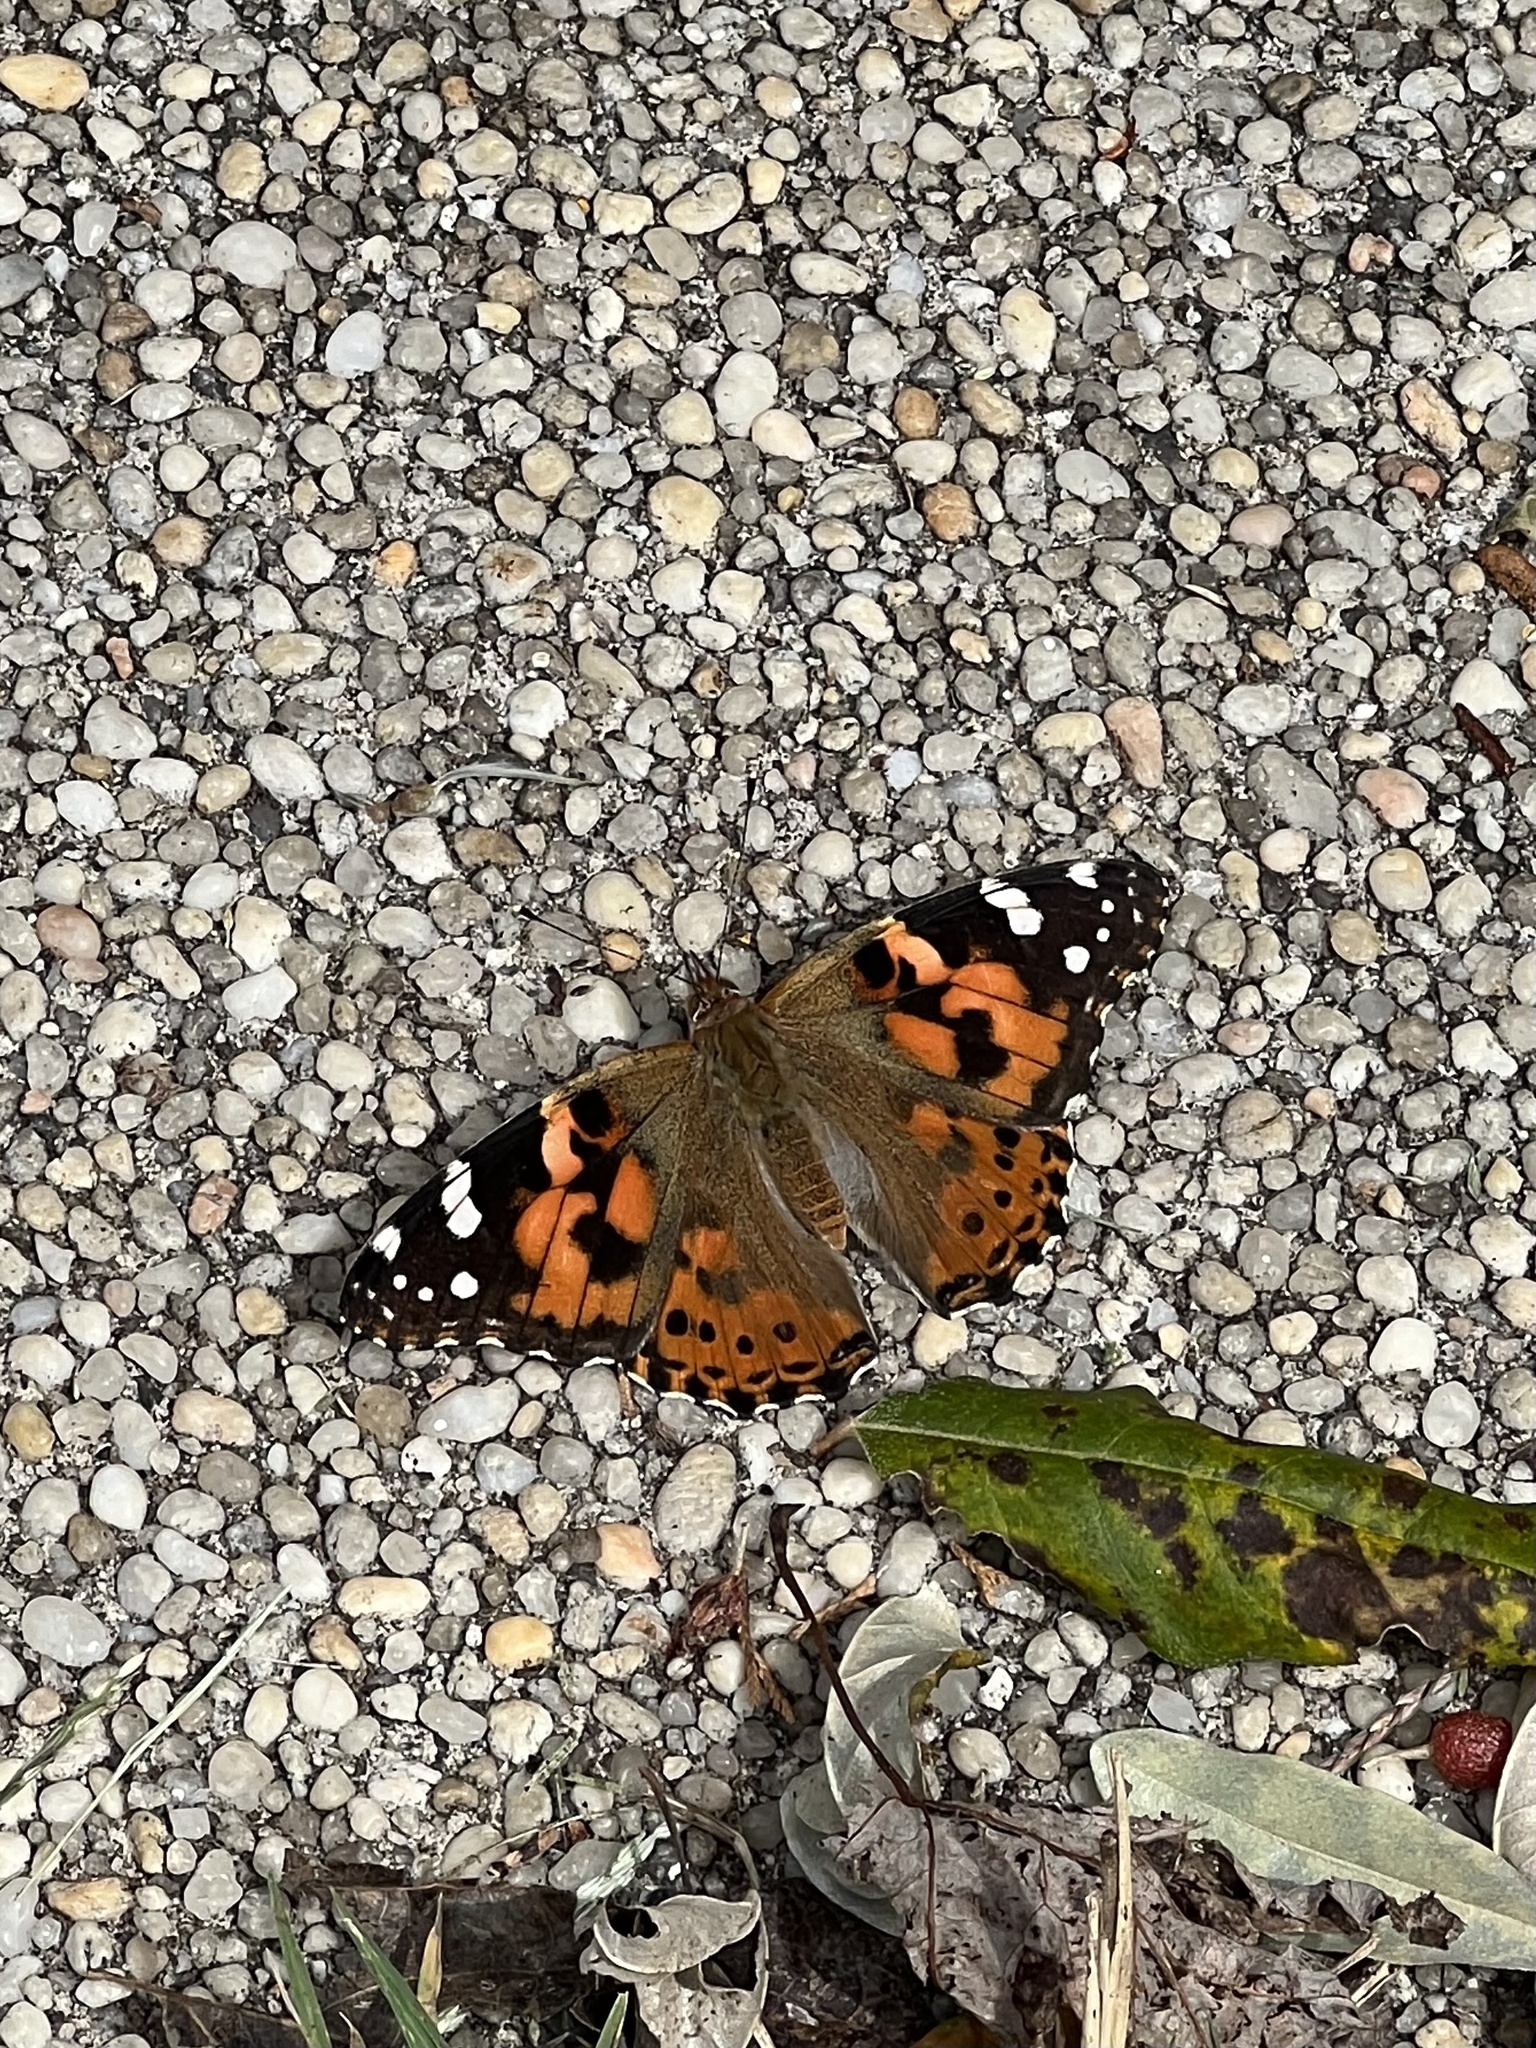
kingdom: Animalia
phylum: Arthropoda
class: Insecta
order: Lepidoptera
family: Nymphalidae
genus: Vanessa
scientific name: Vanessa cardui
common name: Painted lady
